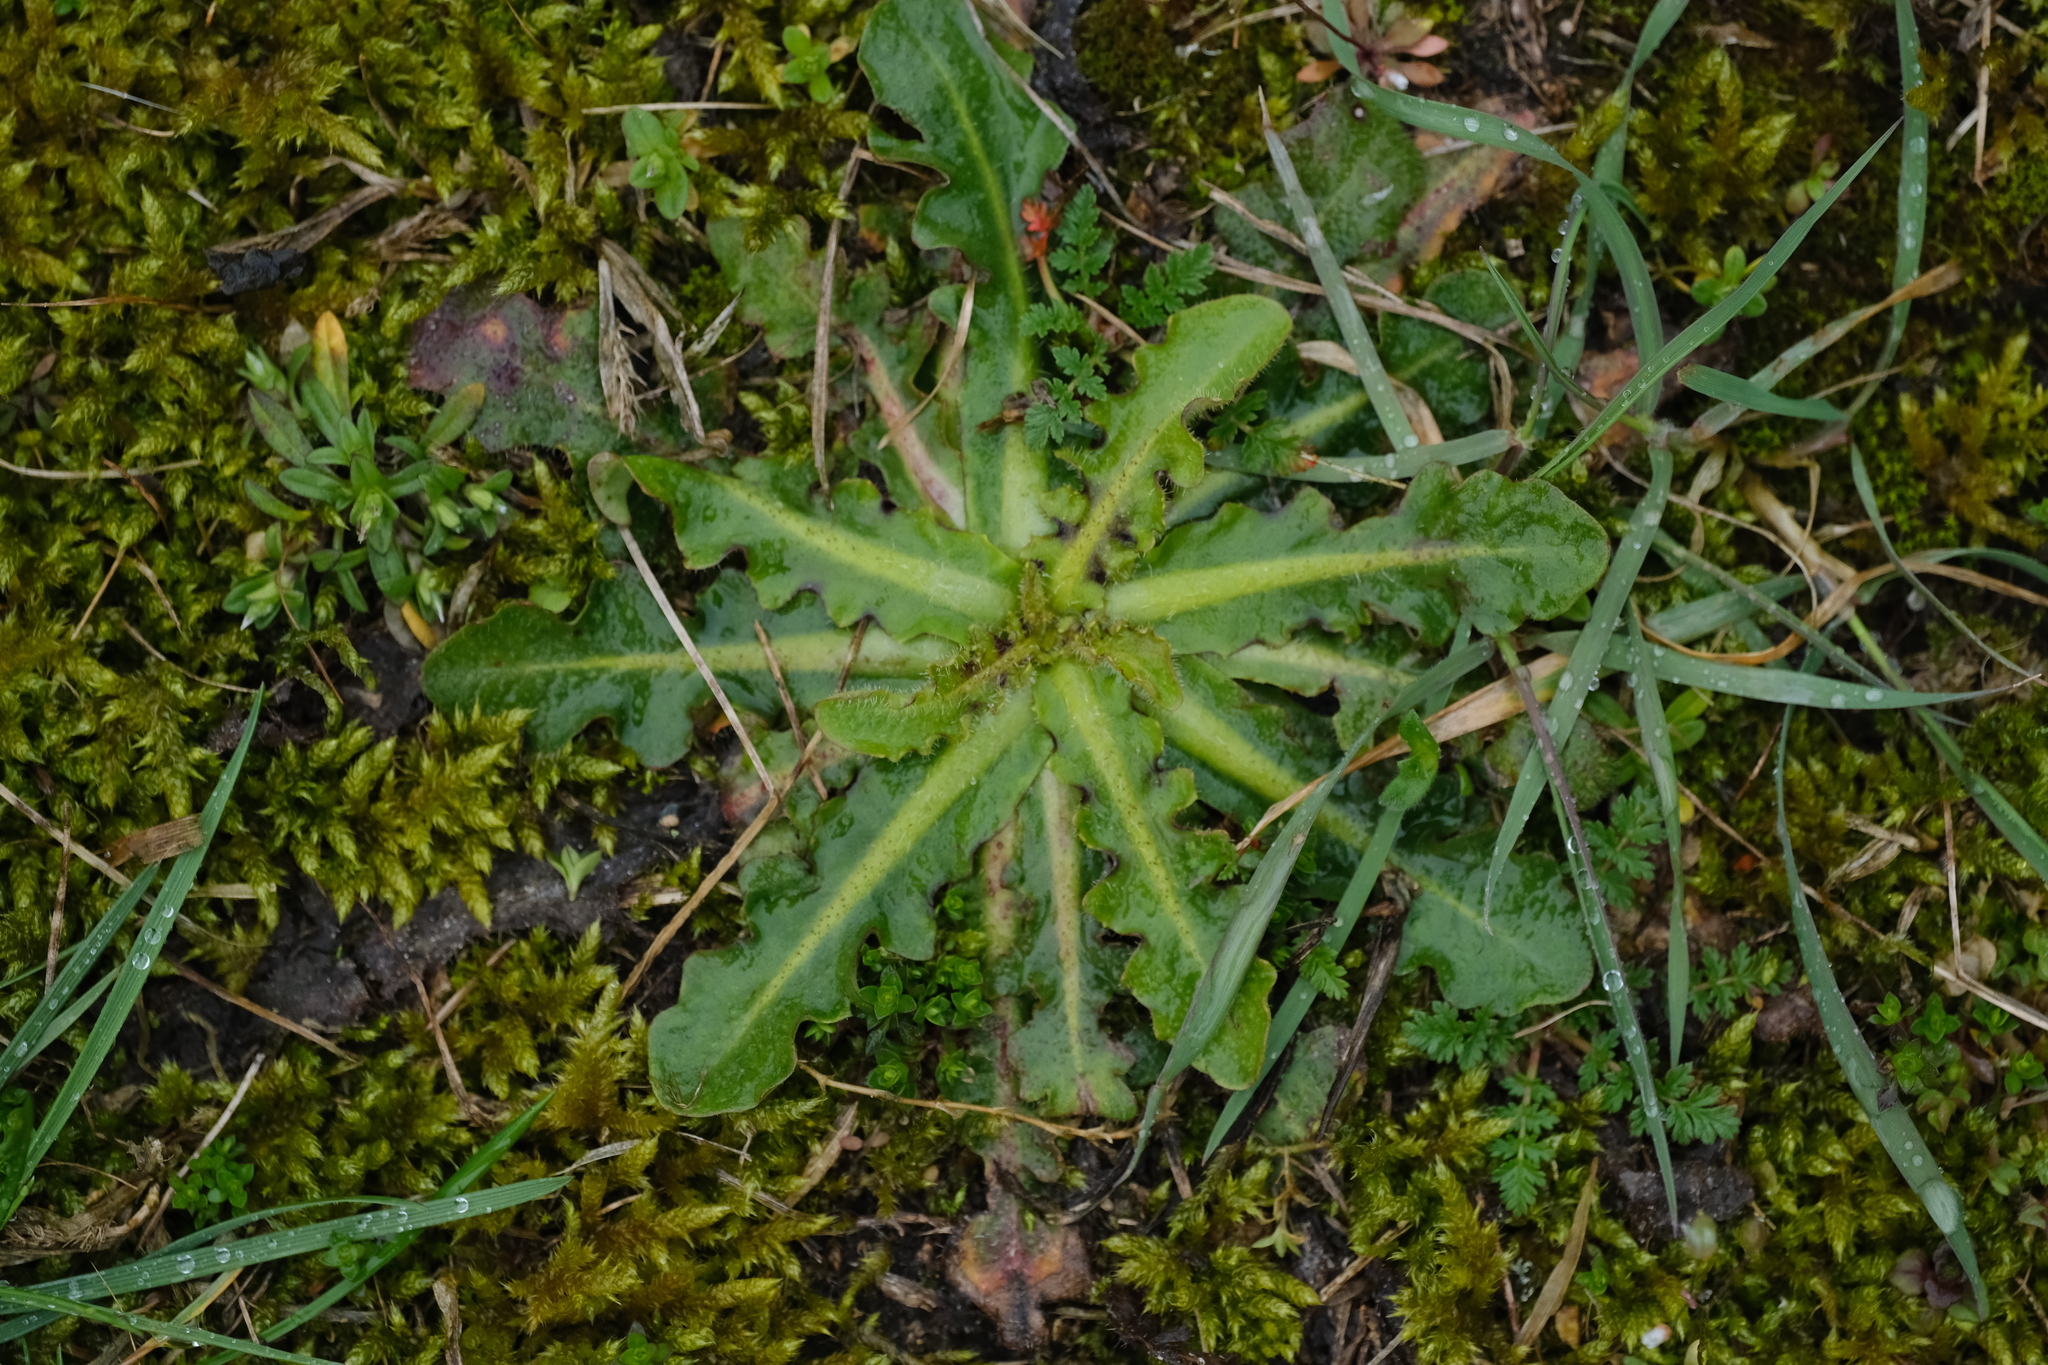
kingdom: Plantae
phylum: Tracheophyta
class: Magnoliopsida
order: Asterales
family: Asteraceae
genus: Hypochaeris
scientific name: Hypochaeris radicata
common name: Flatweed
